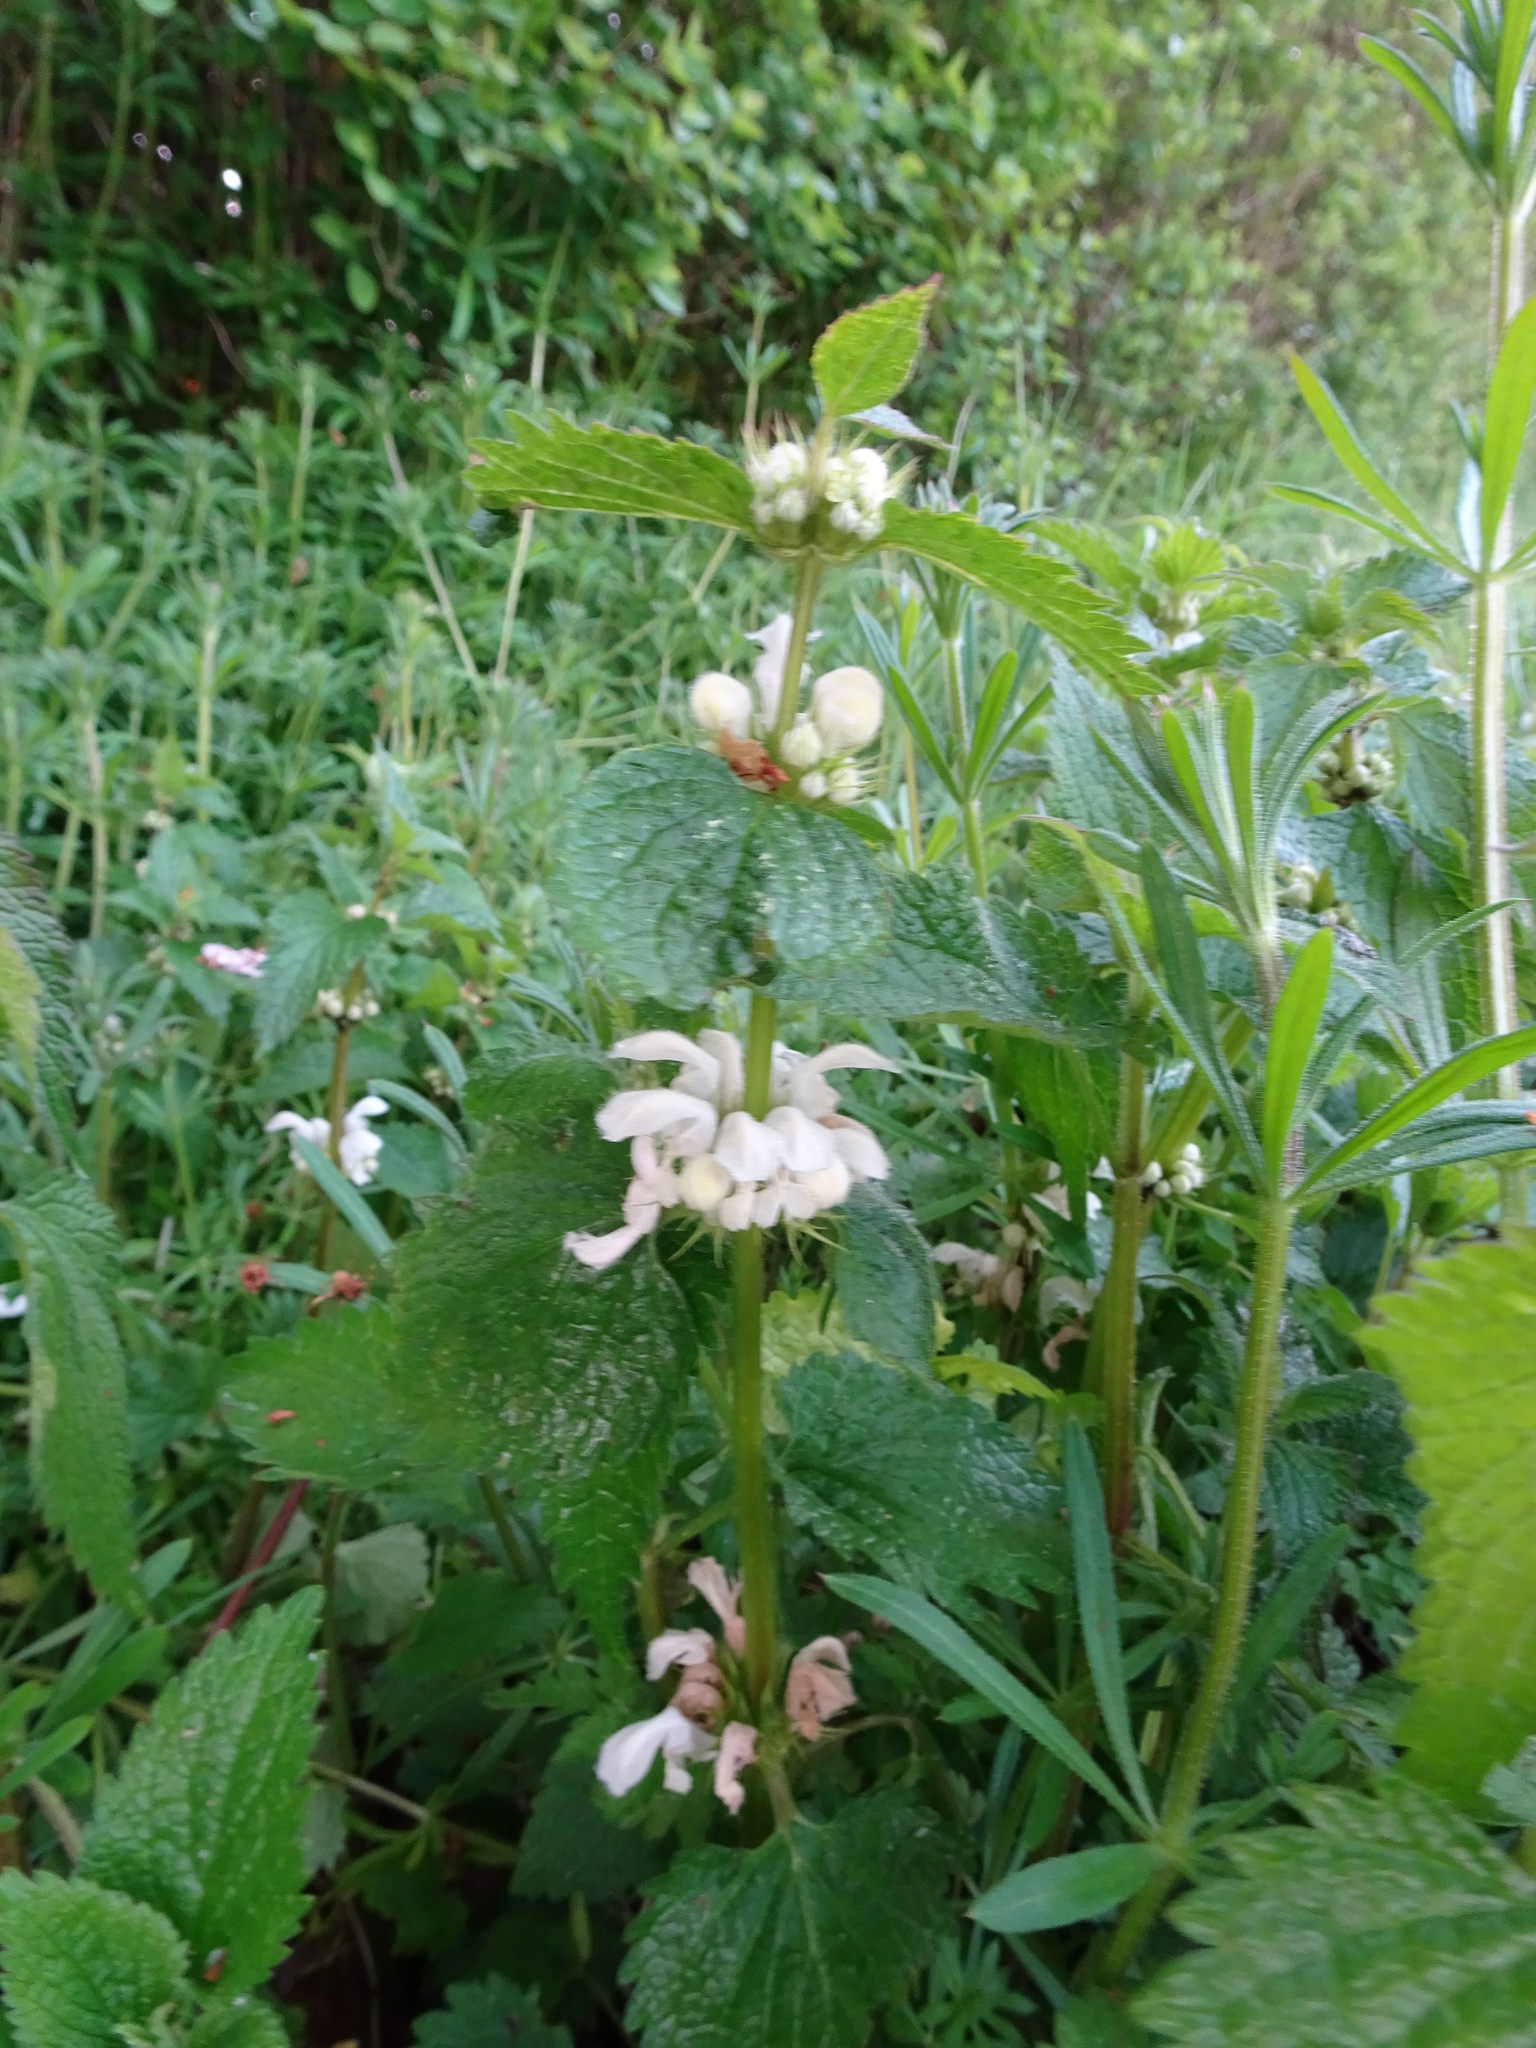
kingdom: Plantae
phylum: Tracheophyta
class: Magnoliopsida
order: Lamiales
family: Lamiaceae
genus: Lamium
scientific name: Lamium album
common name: White dead-nettle
